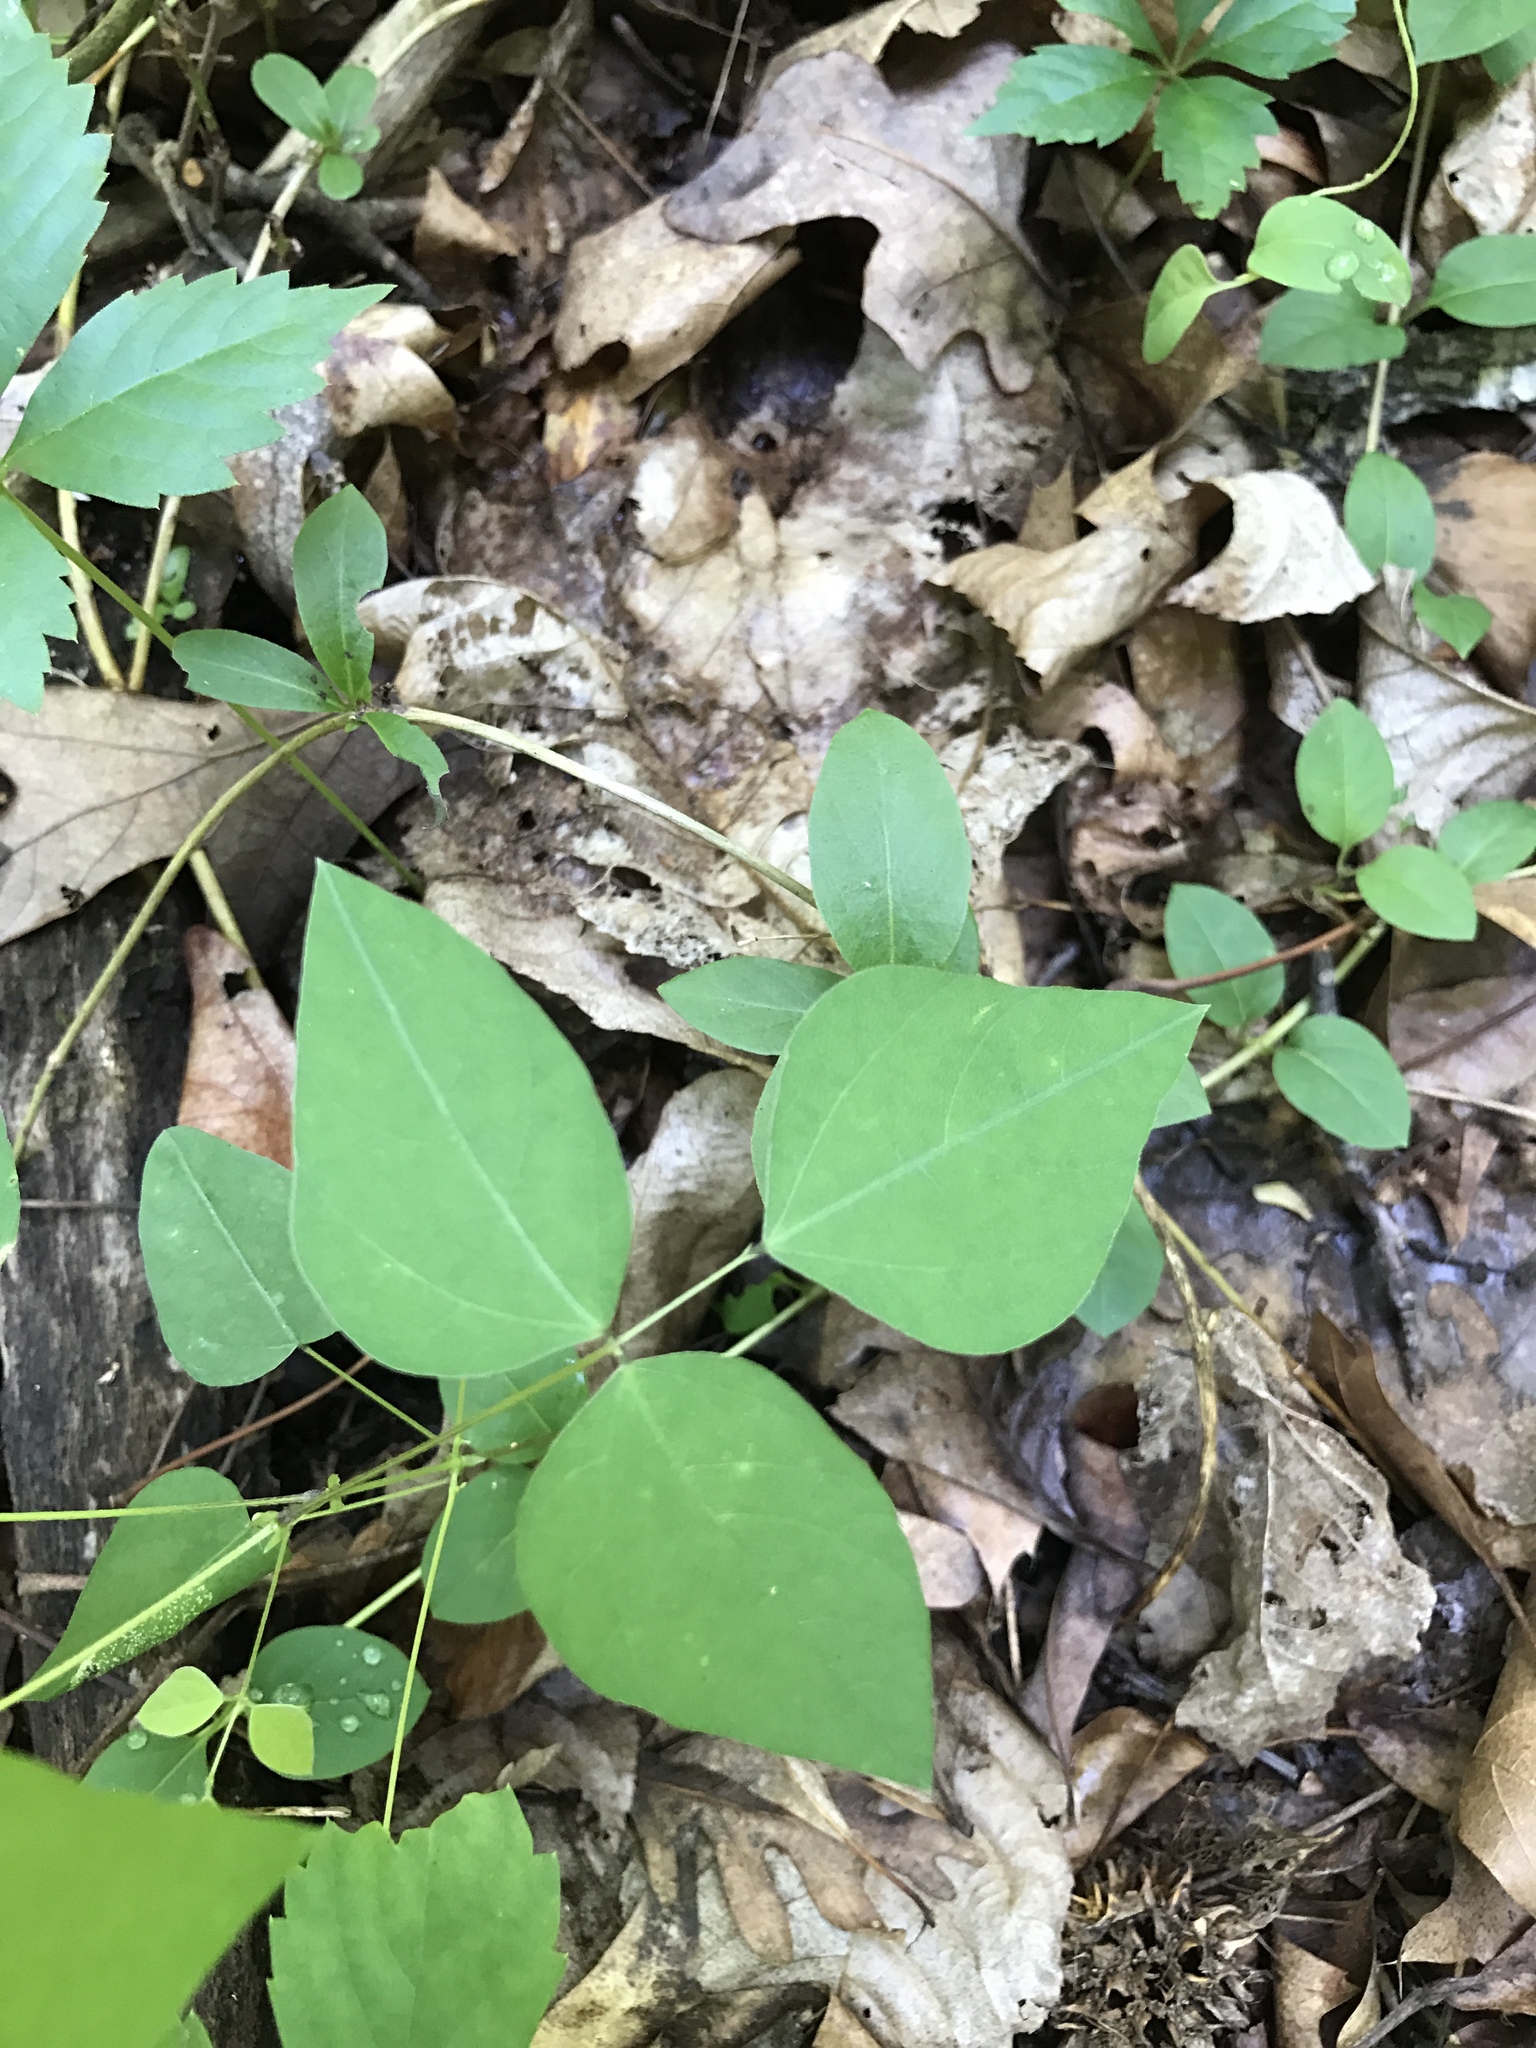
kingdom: Plantae
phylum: Tracheophyta
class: Magnoliopsida
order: Fabales
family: Fabaceae
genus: Amphicarpaea
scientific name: Amphicarpaea bracteata
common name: American hog peanut
